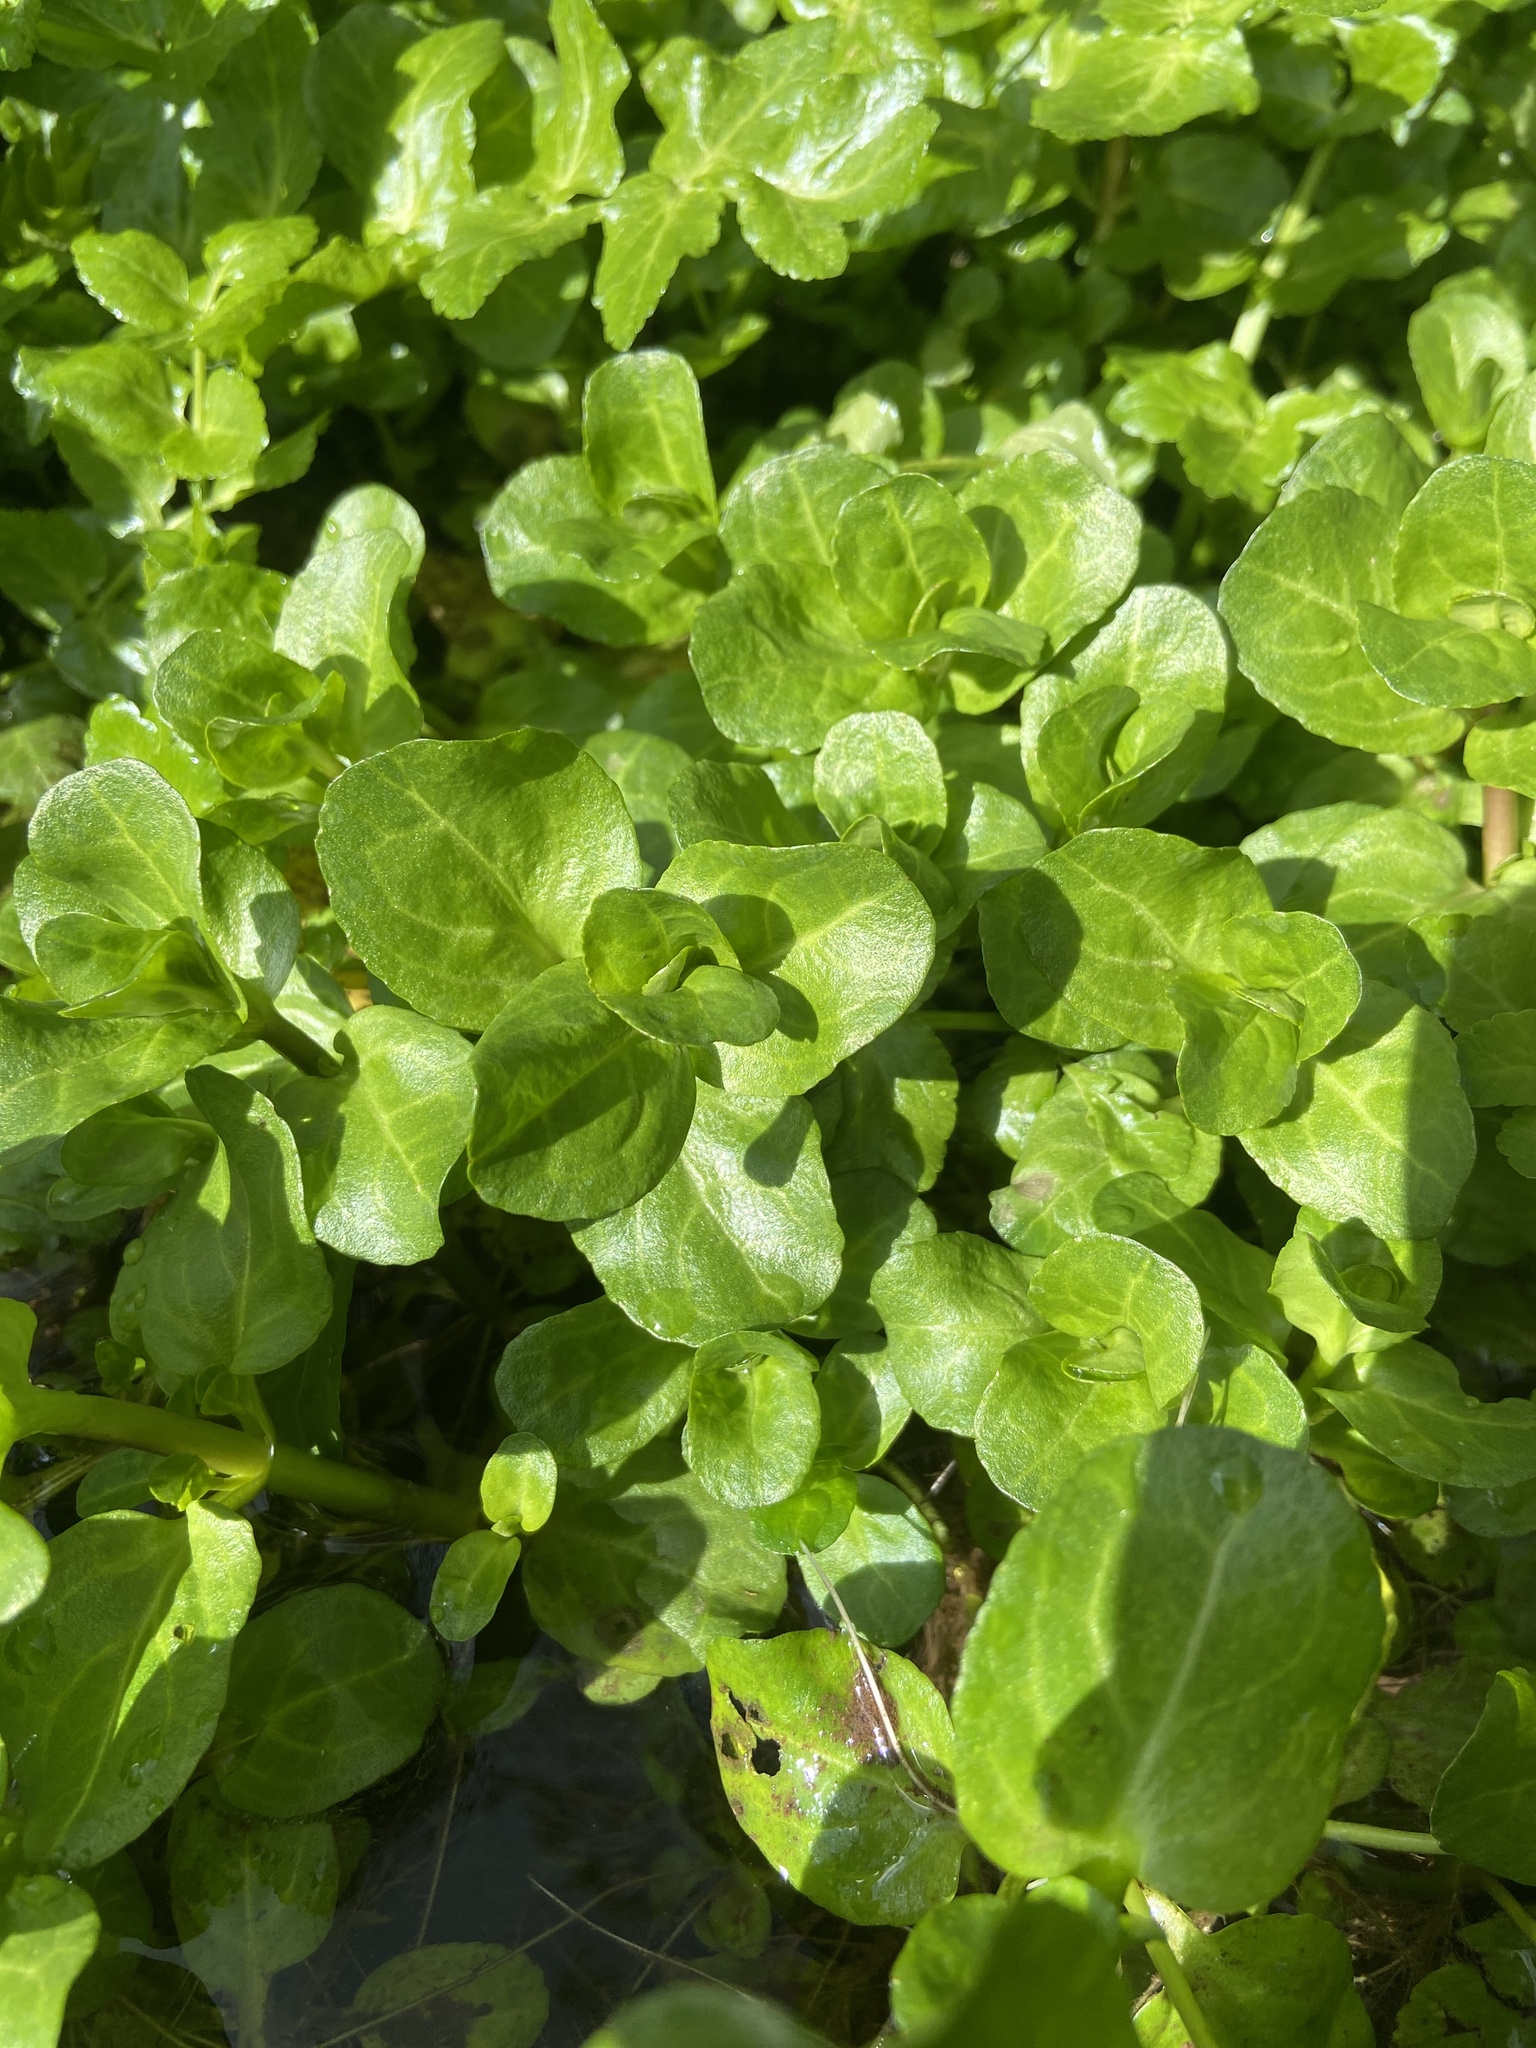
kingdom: Plantae
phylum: Tracheophyta
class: Magnoliopsida
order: Lamiales
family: Plantaginaceae
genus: Veronica
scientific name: Veronica beccabunga
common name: Brooklime
